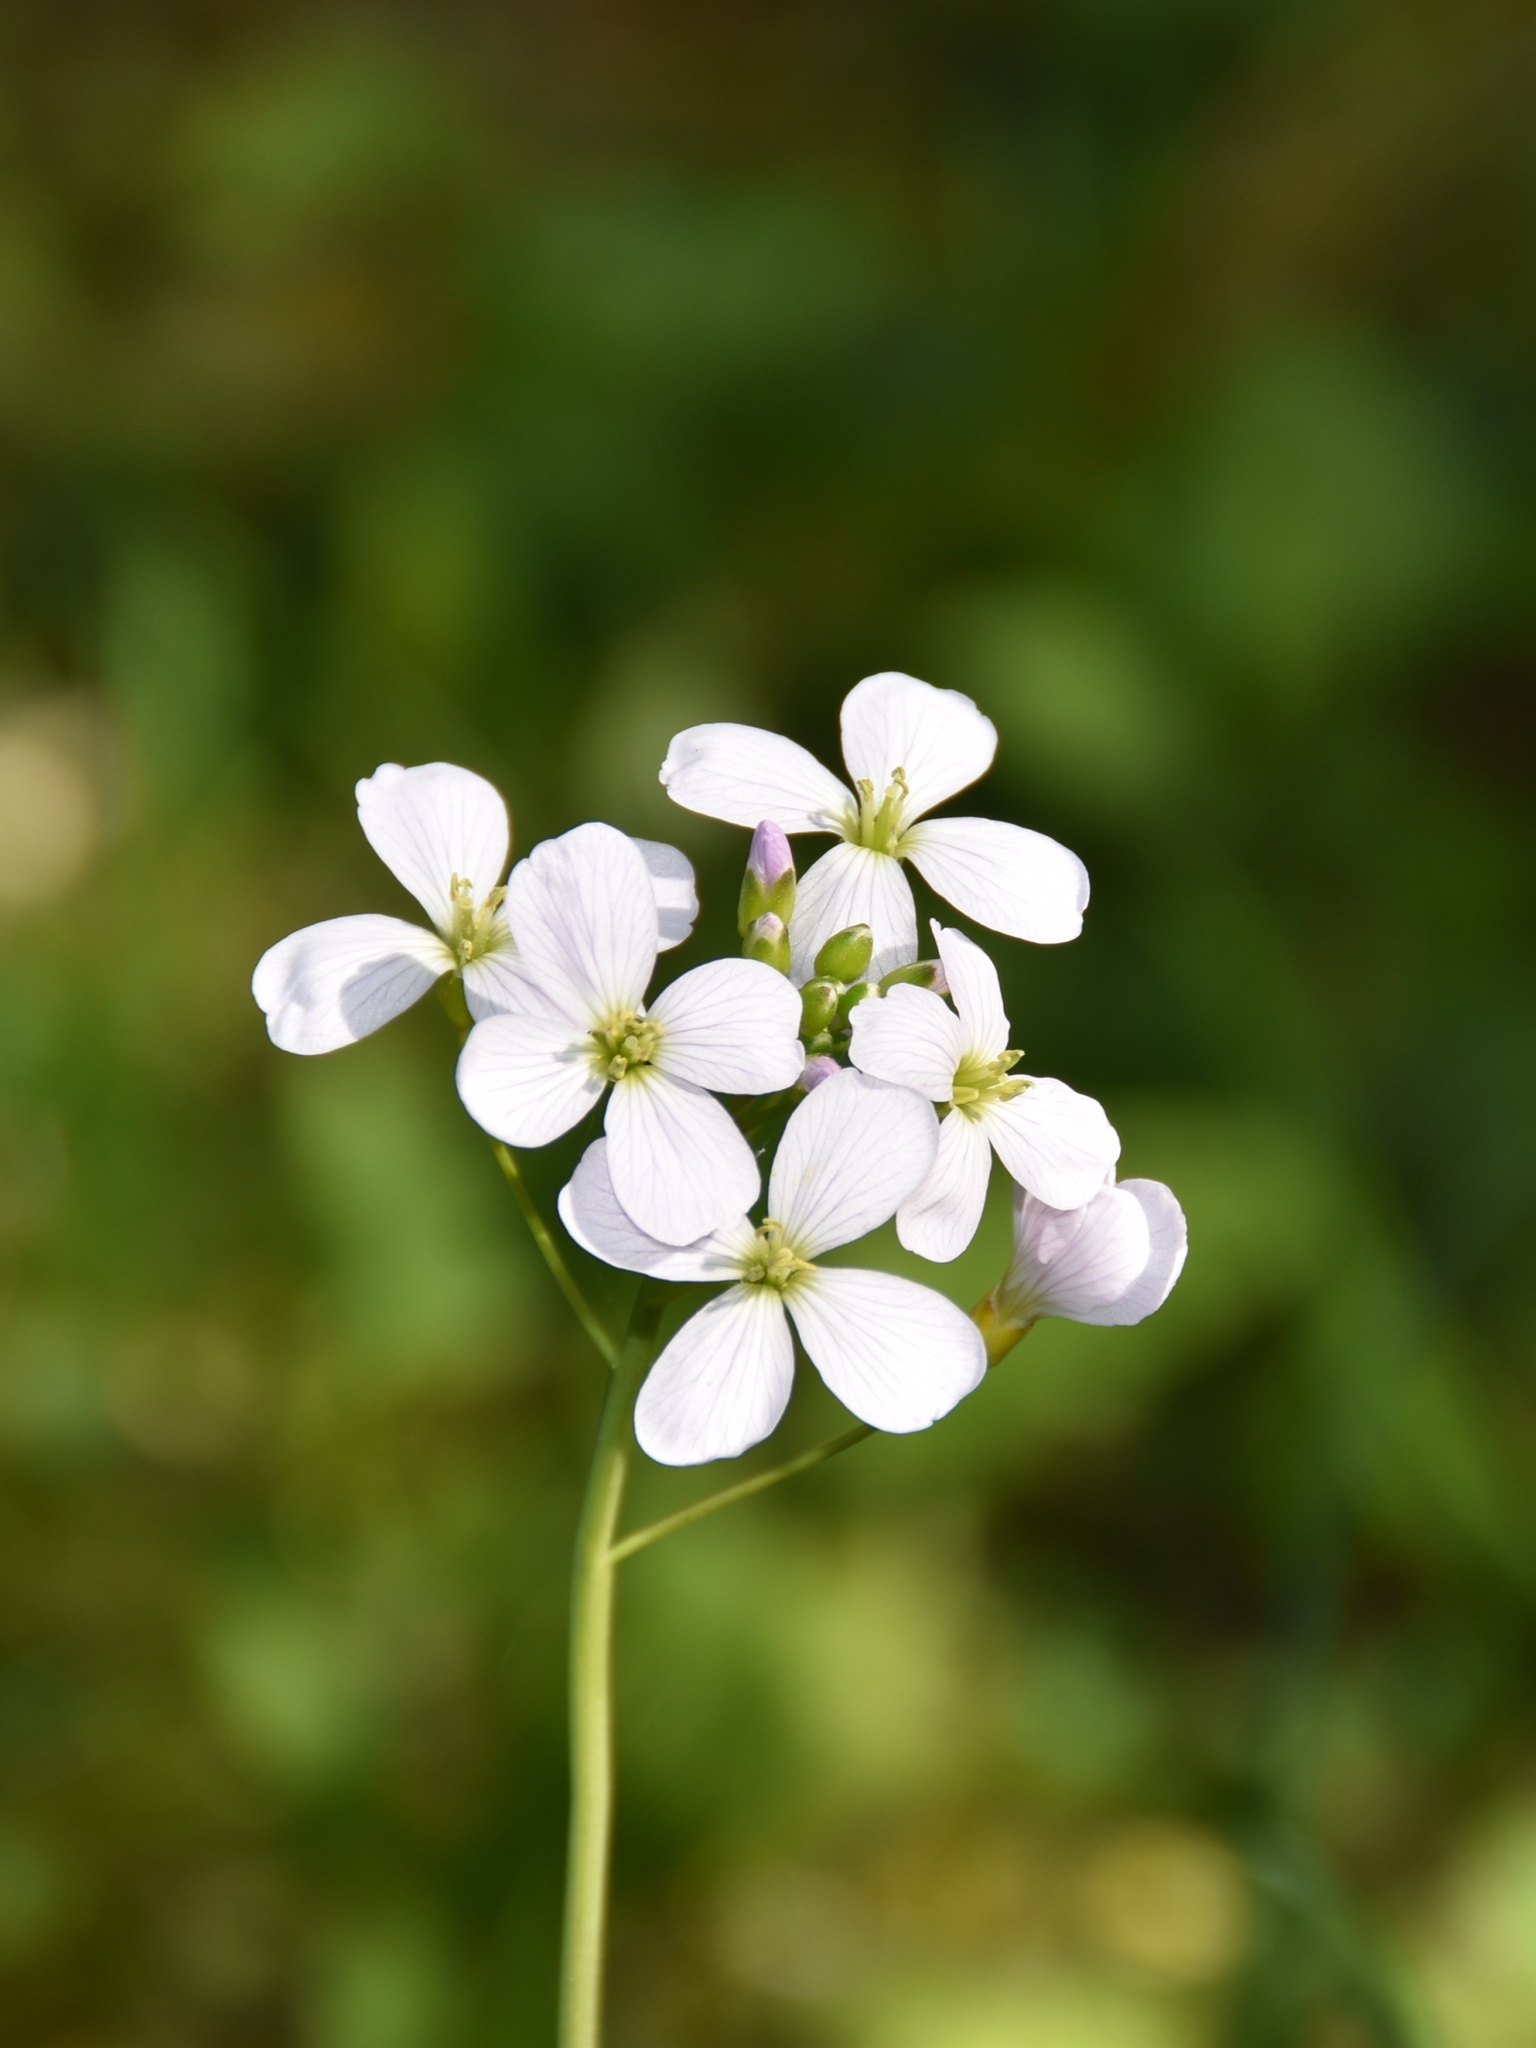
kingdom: Plantae
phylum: Tracheophyta
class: Magnoliopsida
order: Brassicales
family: Brassicaceae
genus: Cardamine
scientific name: Cardamine pratensis
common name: Cuckoo flower
